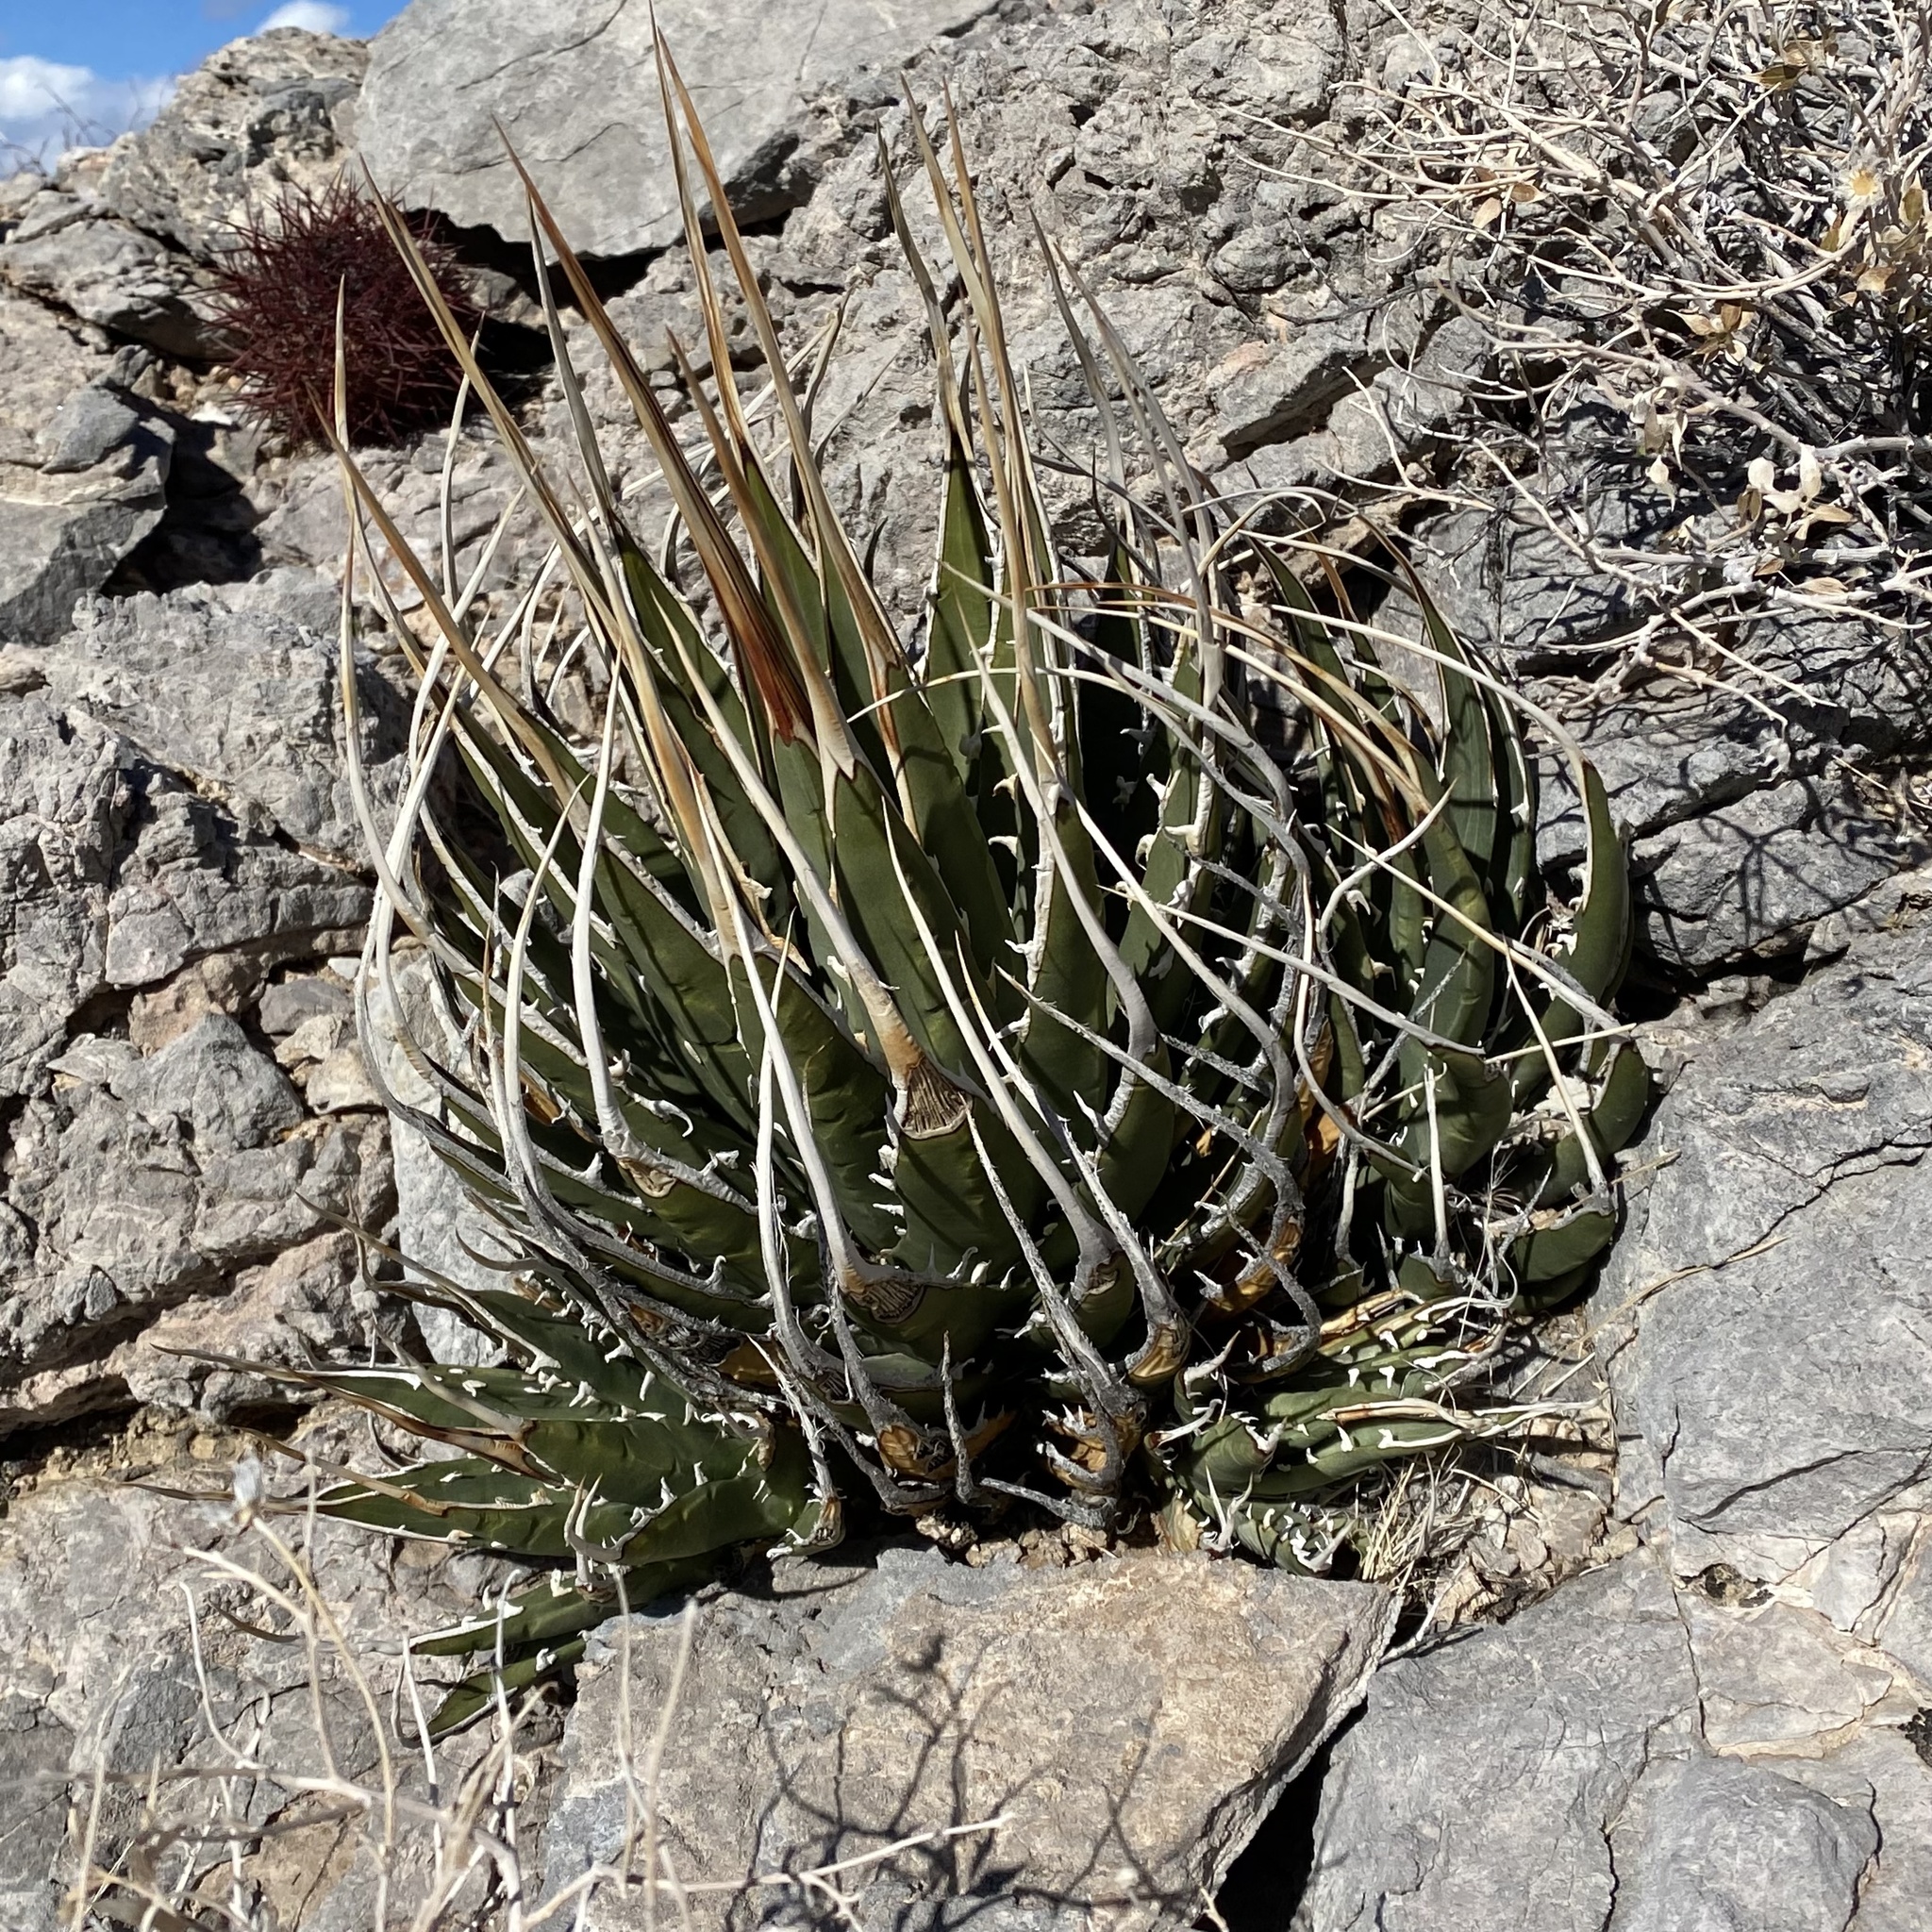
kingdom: Plantae
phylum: Tracheophyta
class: Liliopsida
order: Asparagales
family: Asparagaceae
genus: Agave
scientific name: Agave utahensis
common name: Utah agave
